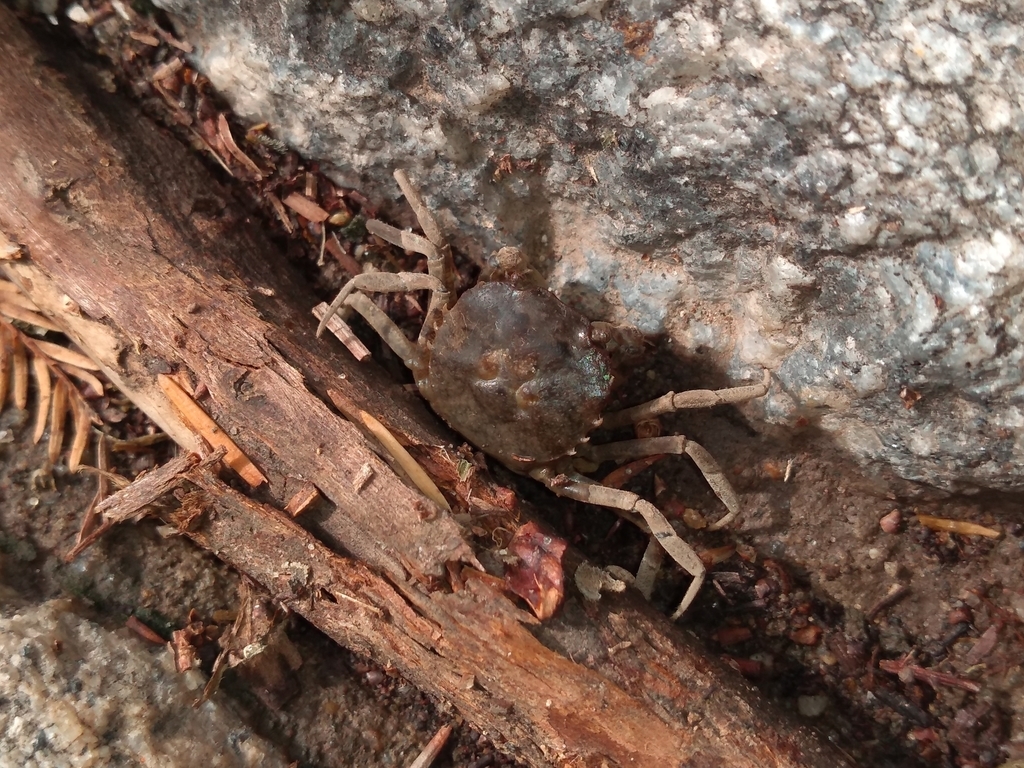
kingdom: Animalia
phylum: Arthropoda
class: Malacostraca
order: Decapoda
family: Trichodactylidae
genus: Trichodactylus
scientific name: Trichodactylus borellianus
